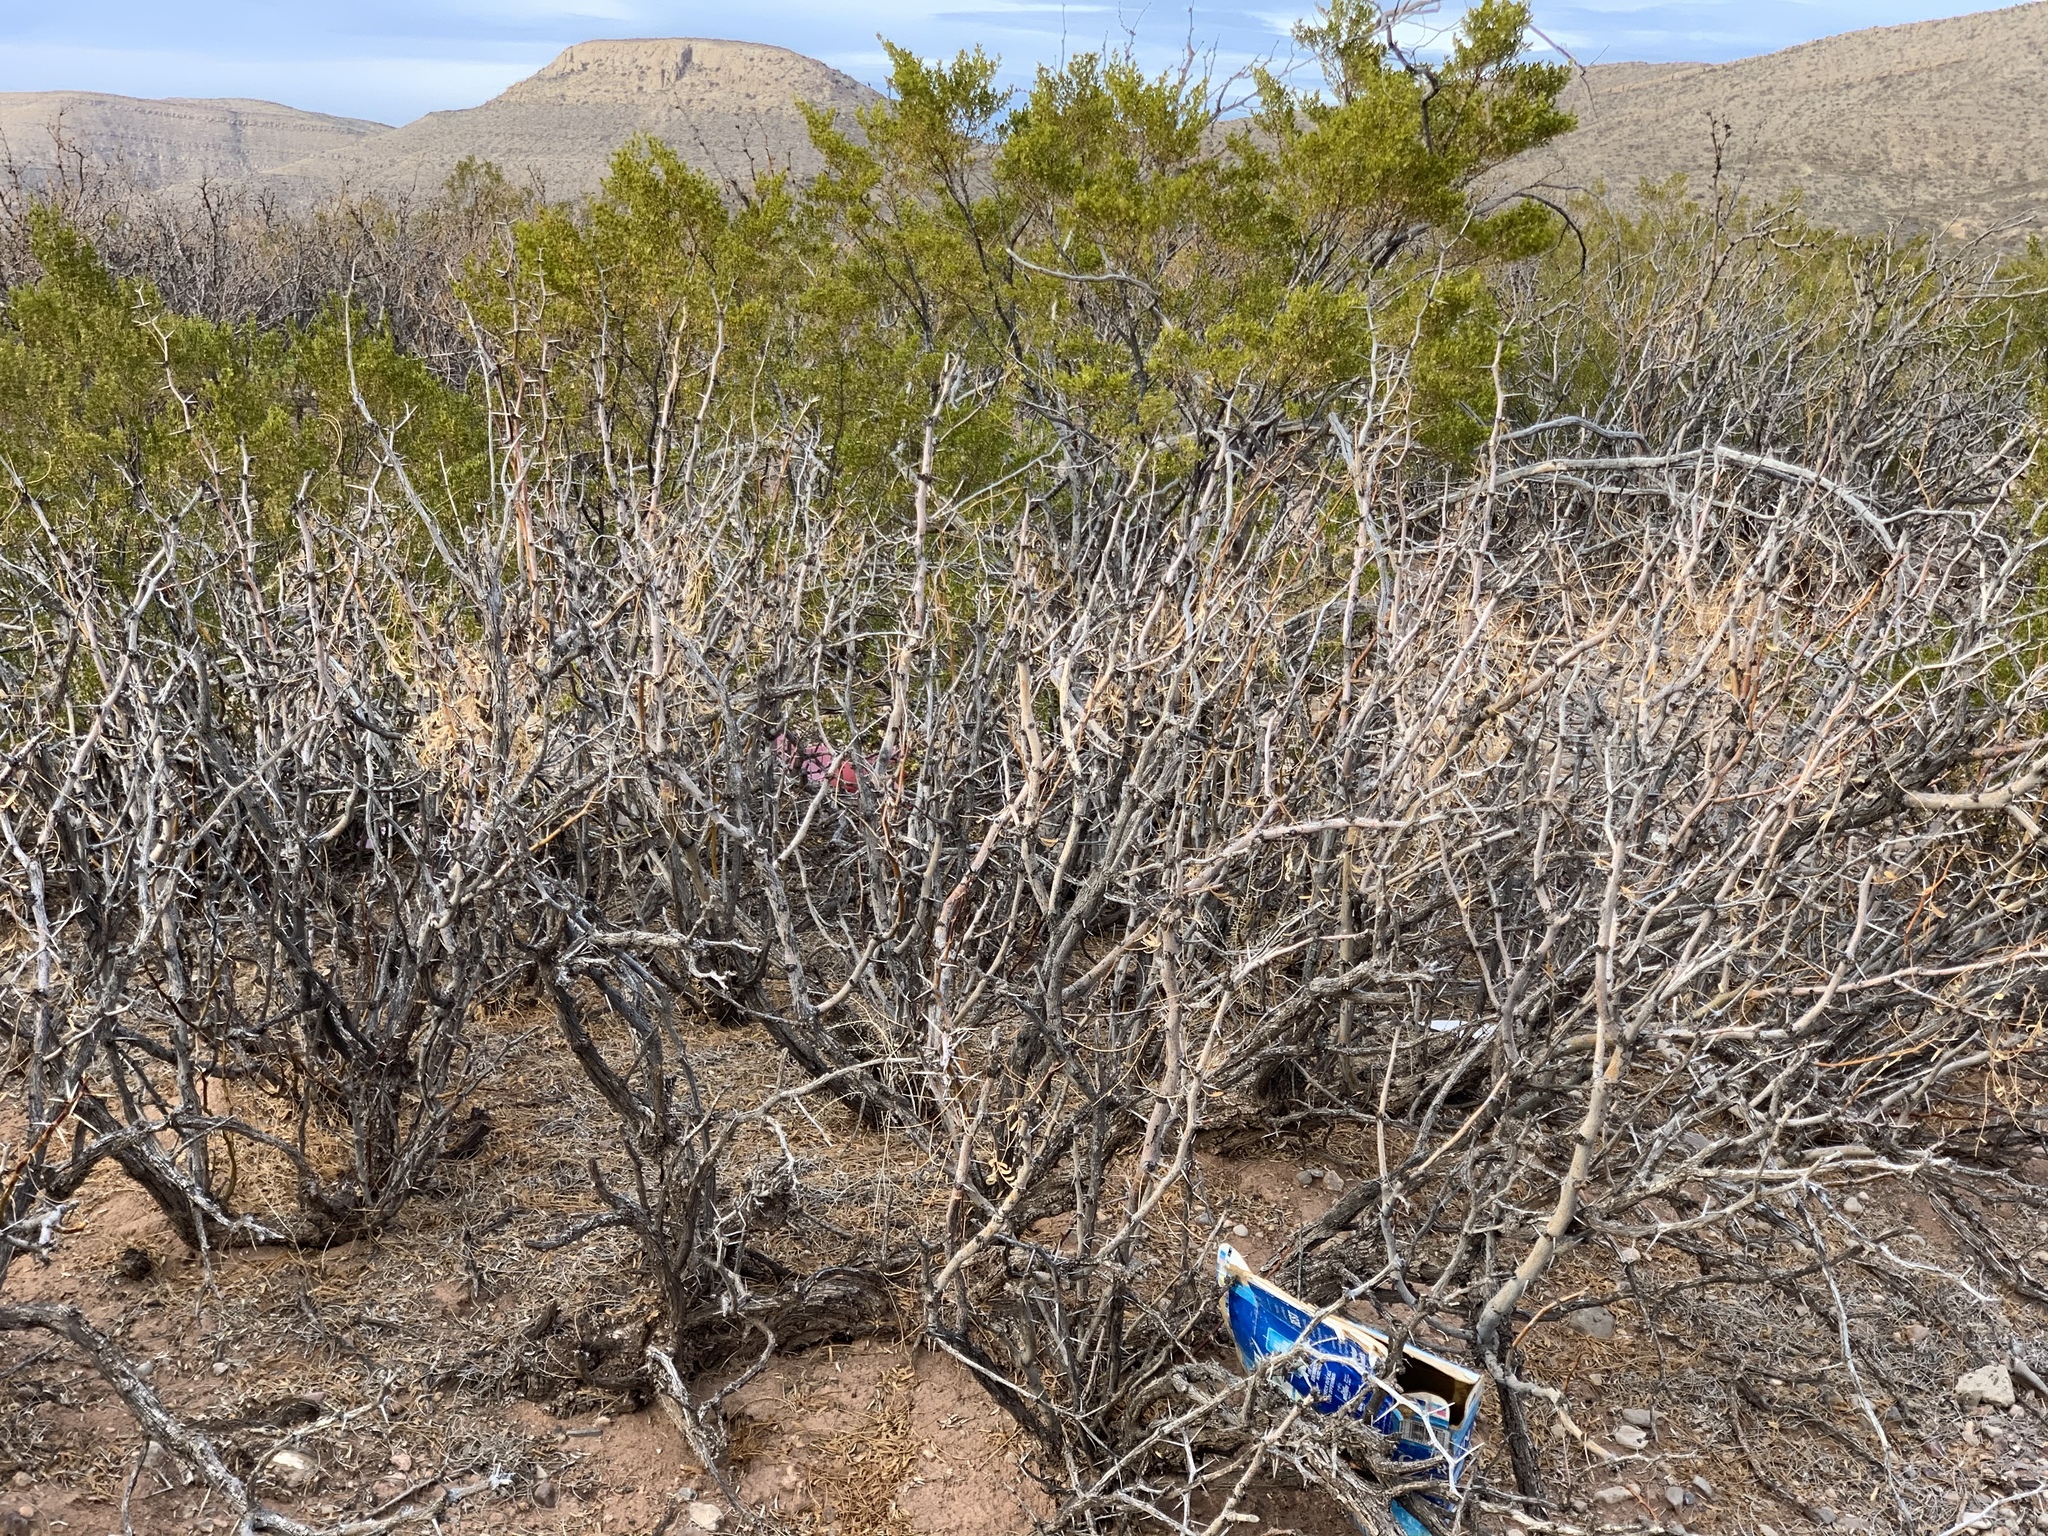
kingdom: Plantae
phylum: Tracheophyta
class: Magnoliopsida
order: Fabales
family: Fabaceae
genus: Prosopis
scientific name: Prosopis glandulosa
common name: Honey mesquite
